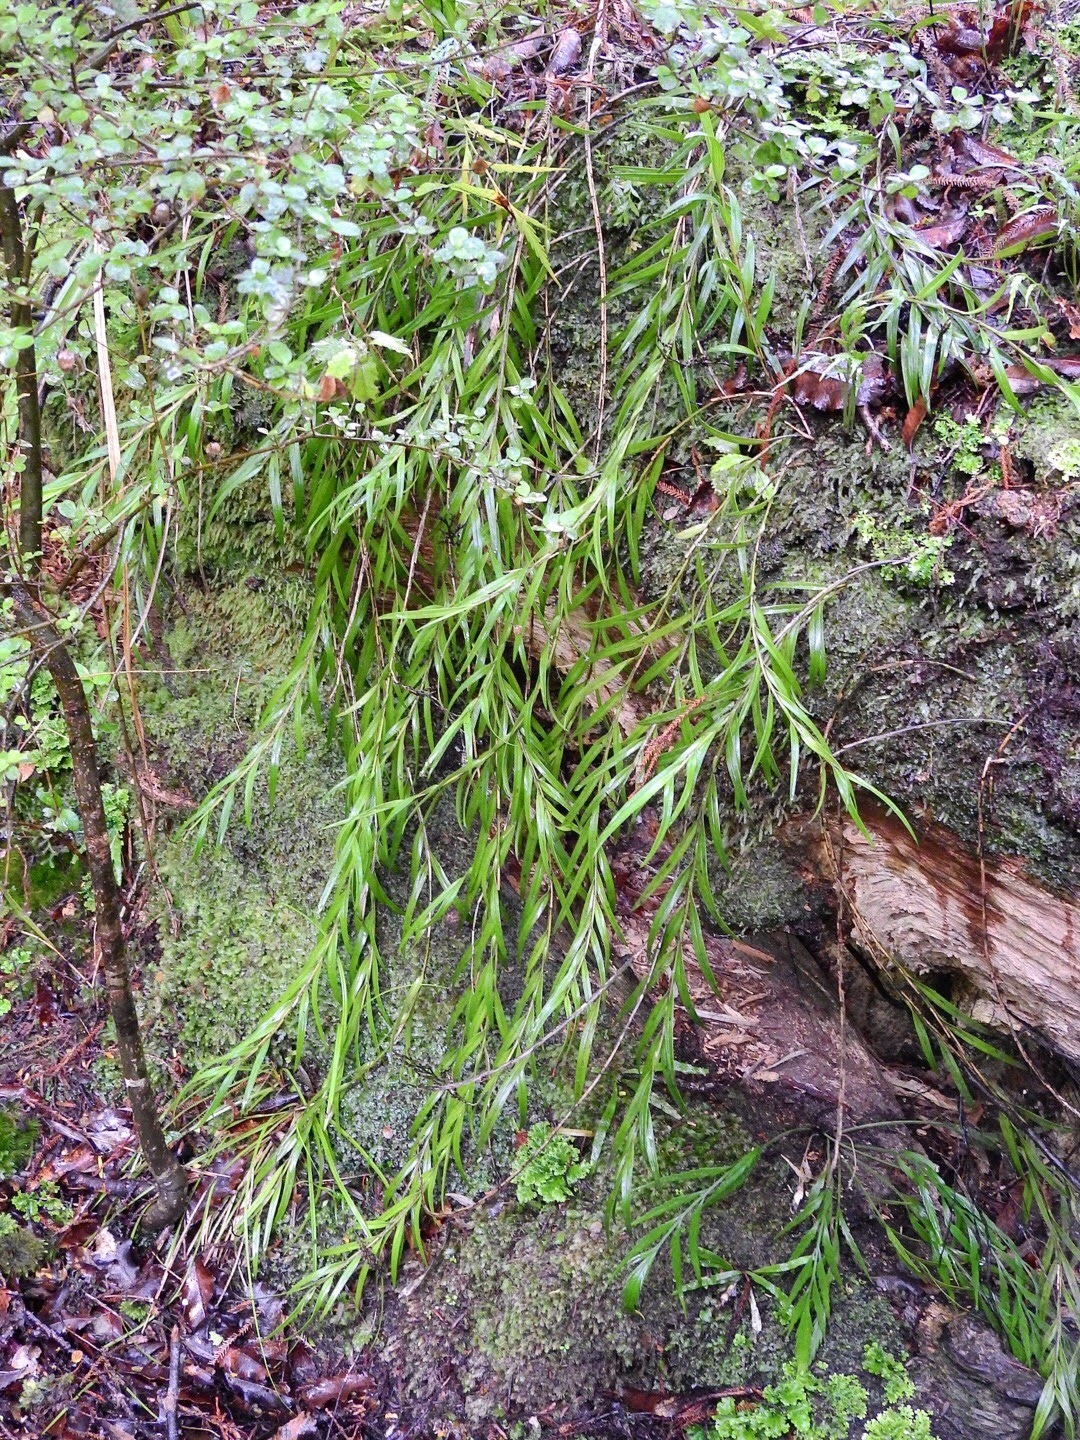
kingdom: Plantae
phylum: Tracheophyta
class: Liliopsida
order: Asparagales
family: Orchidaceae
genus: Earina
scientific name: Earina autumnalis
